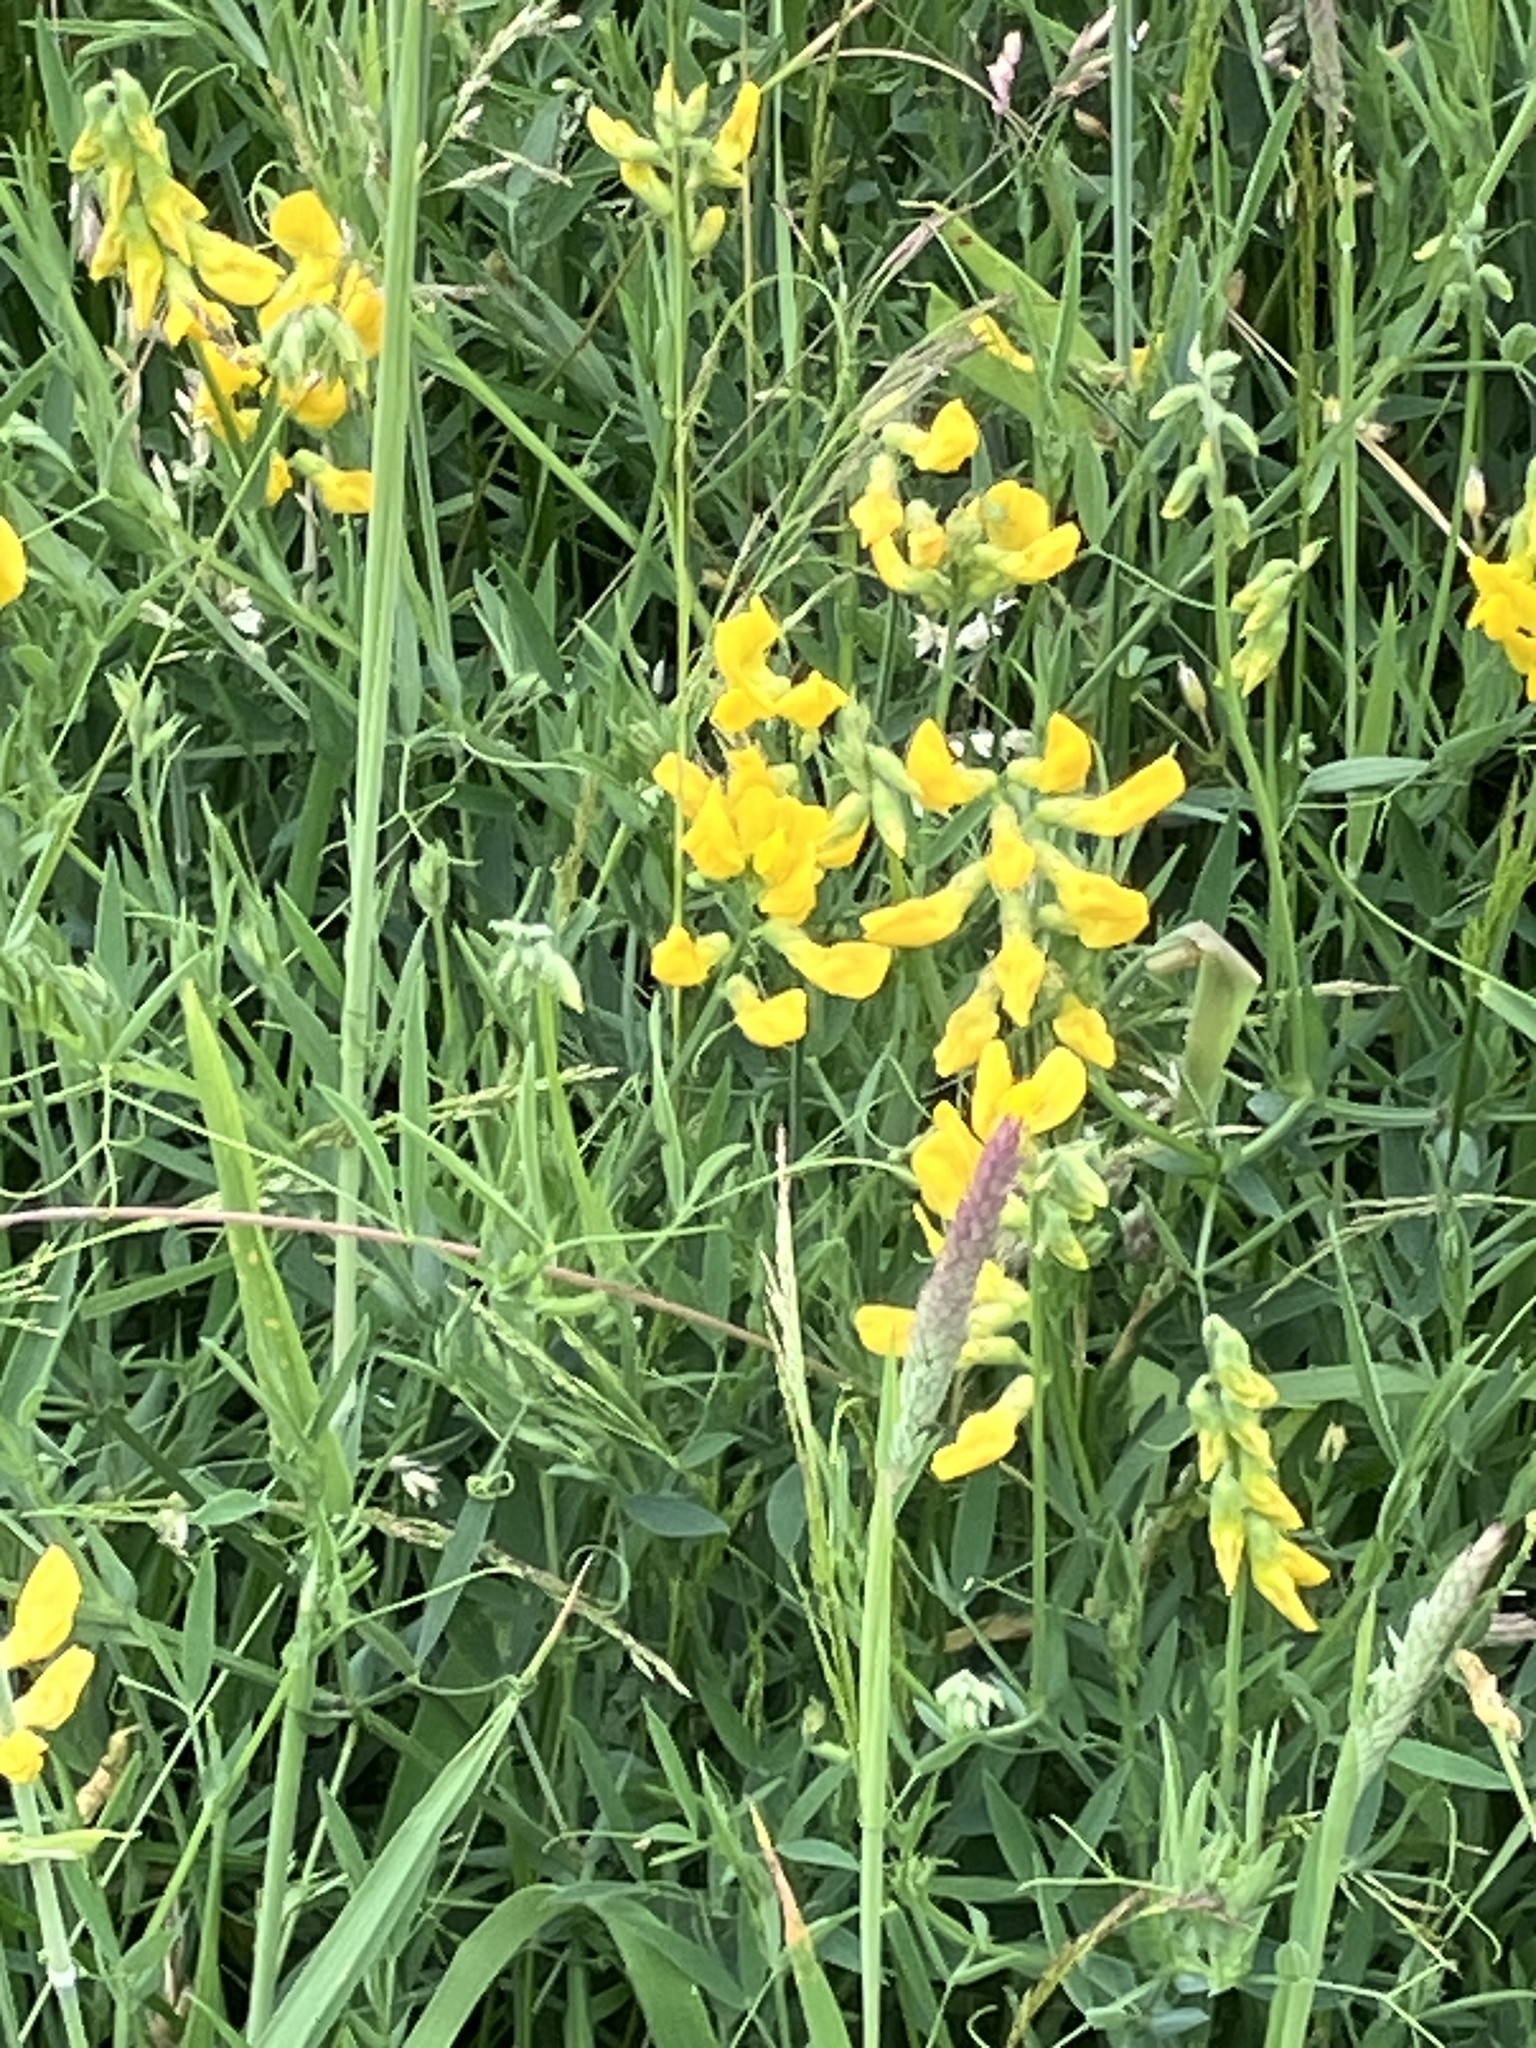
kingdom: Plantae
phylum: Tracheophyta
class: Magnoliopsida
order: Fabales
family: Fabaceae
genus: Lathyrus
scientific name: Lathyrus pratensis
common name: Meadow vetchling
